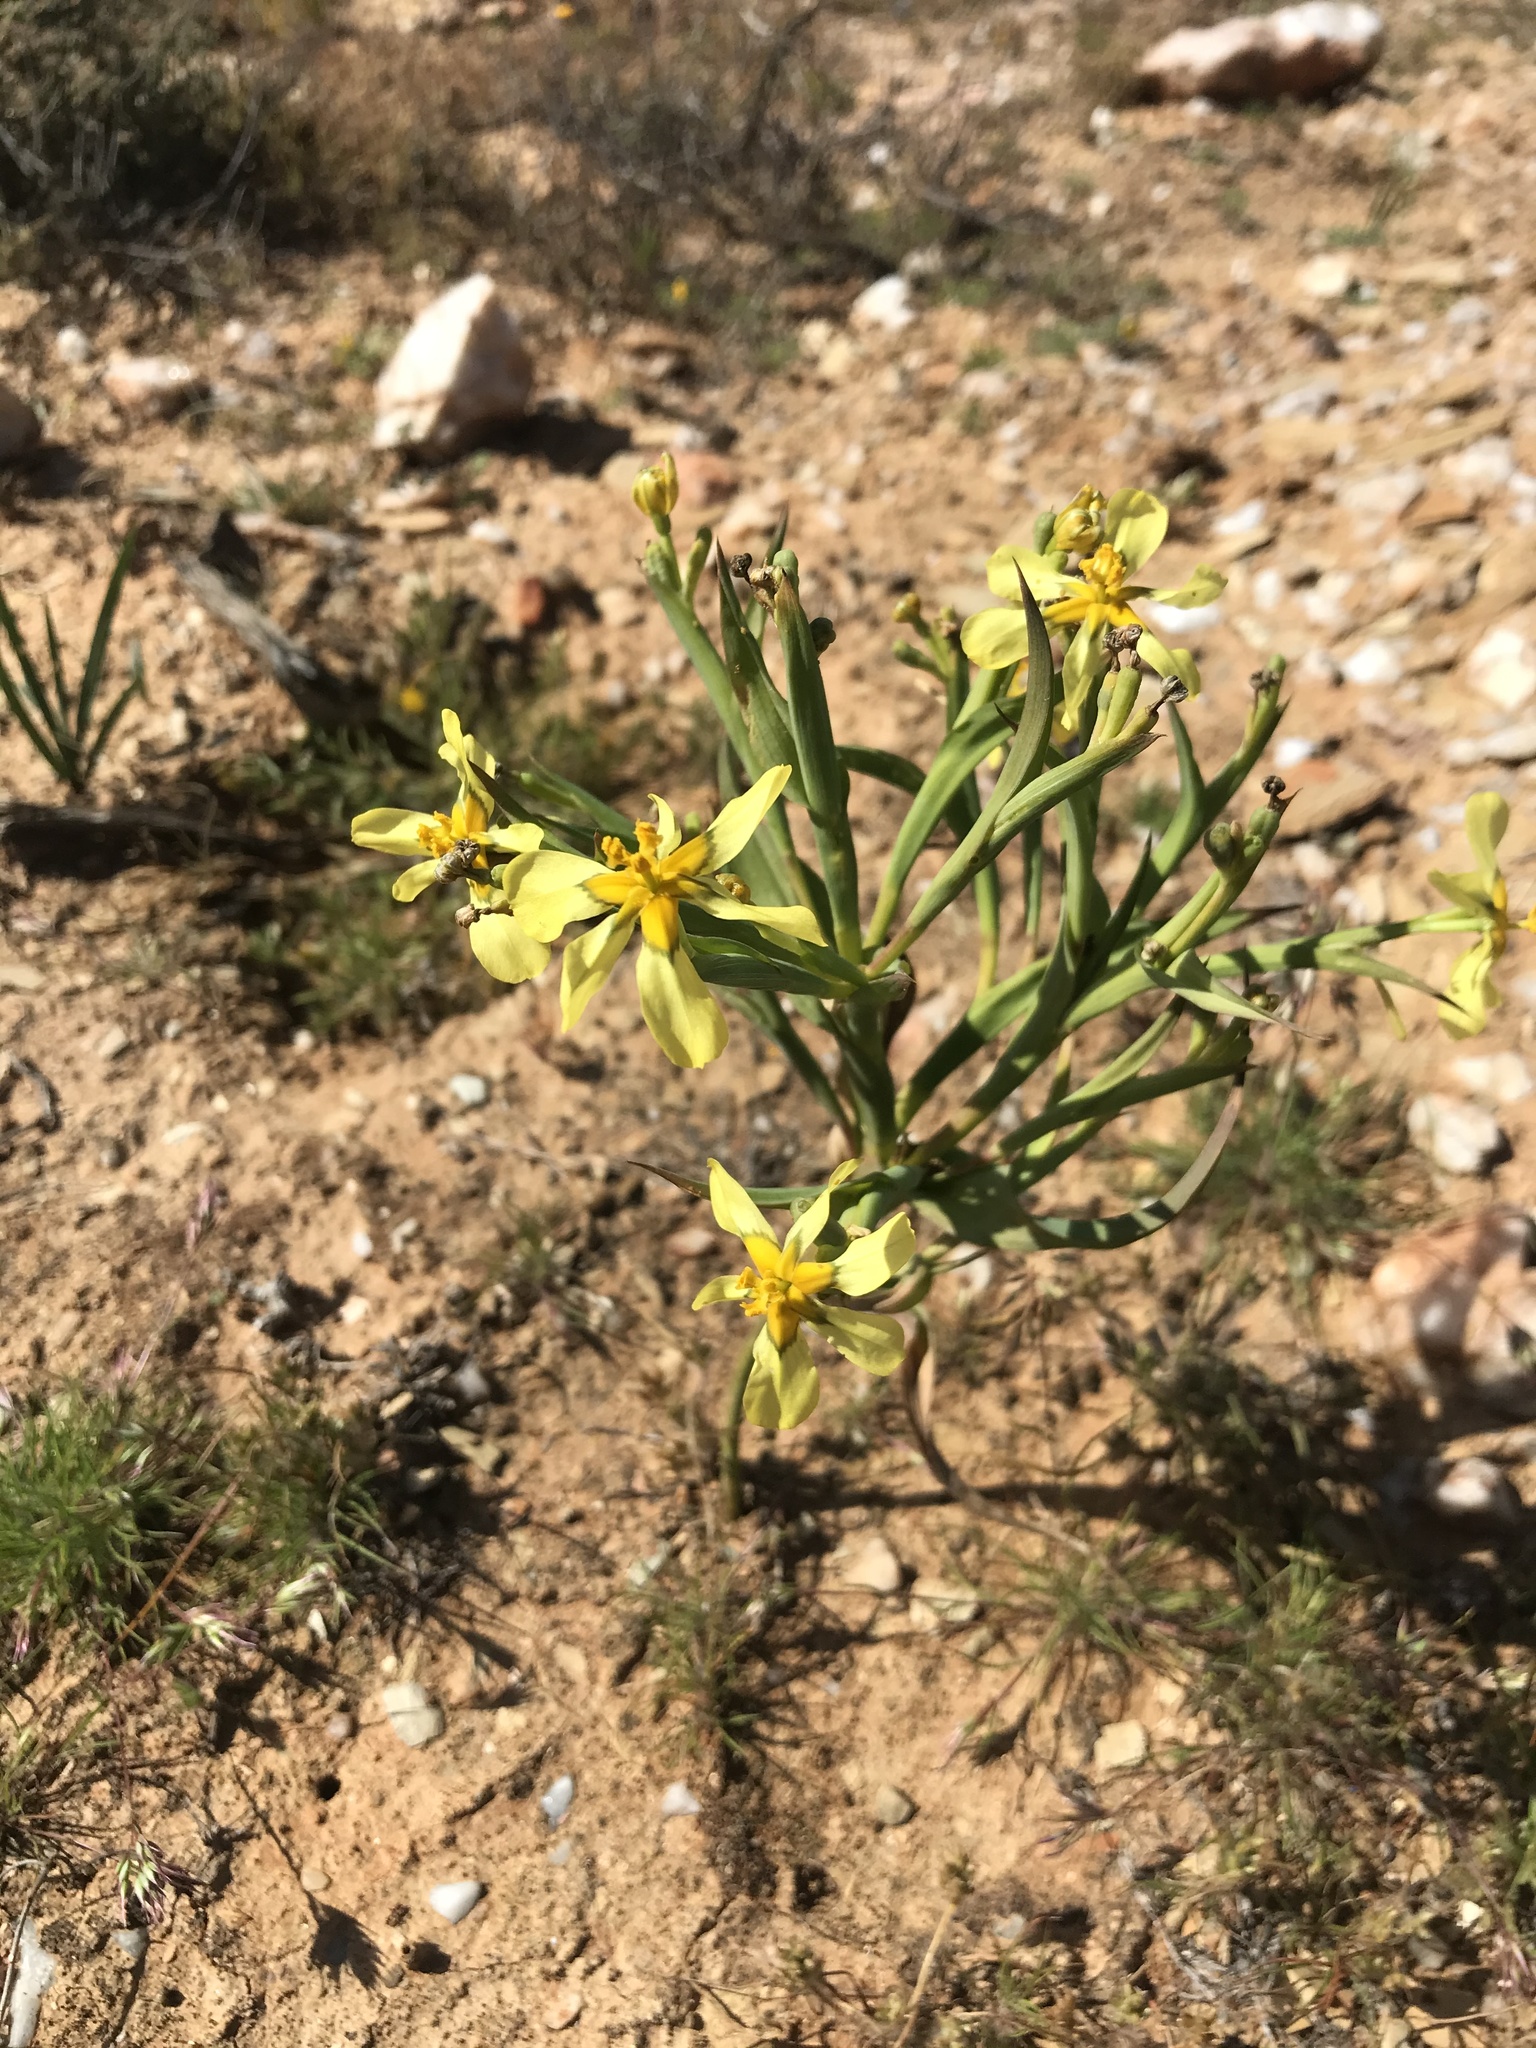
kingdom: Plantae
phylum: Tracheophyta
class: Liliopsida
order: Asparagales
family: Iridaceae
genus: Moraea
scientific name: Moraea knersvlaktensis
